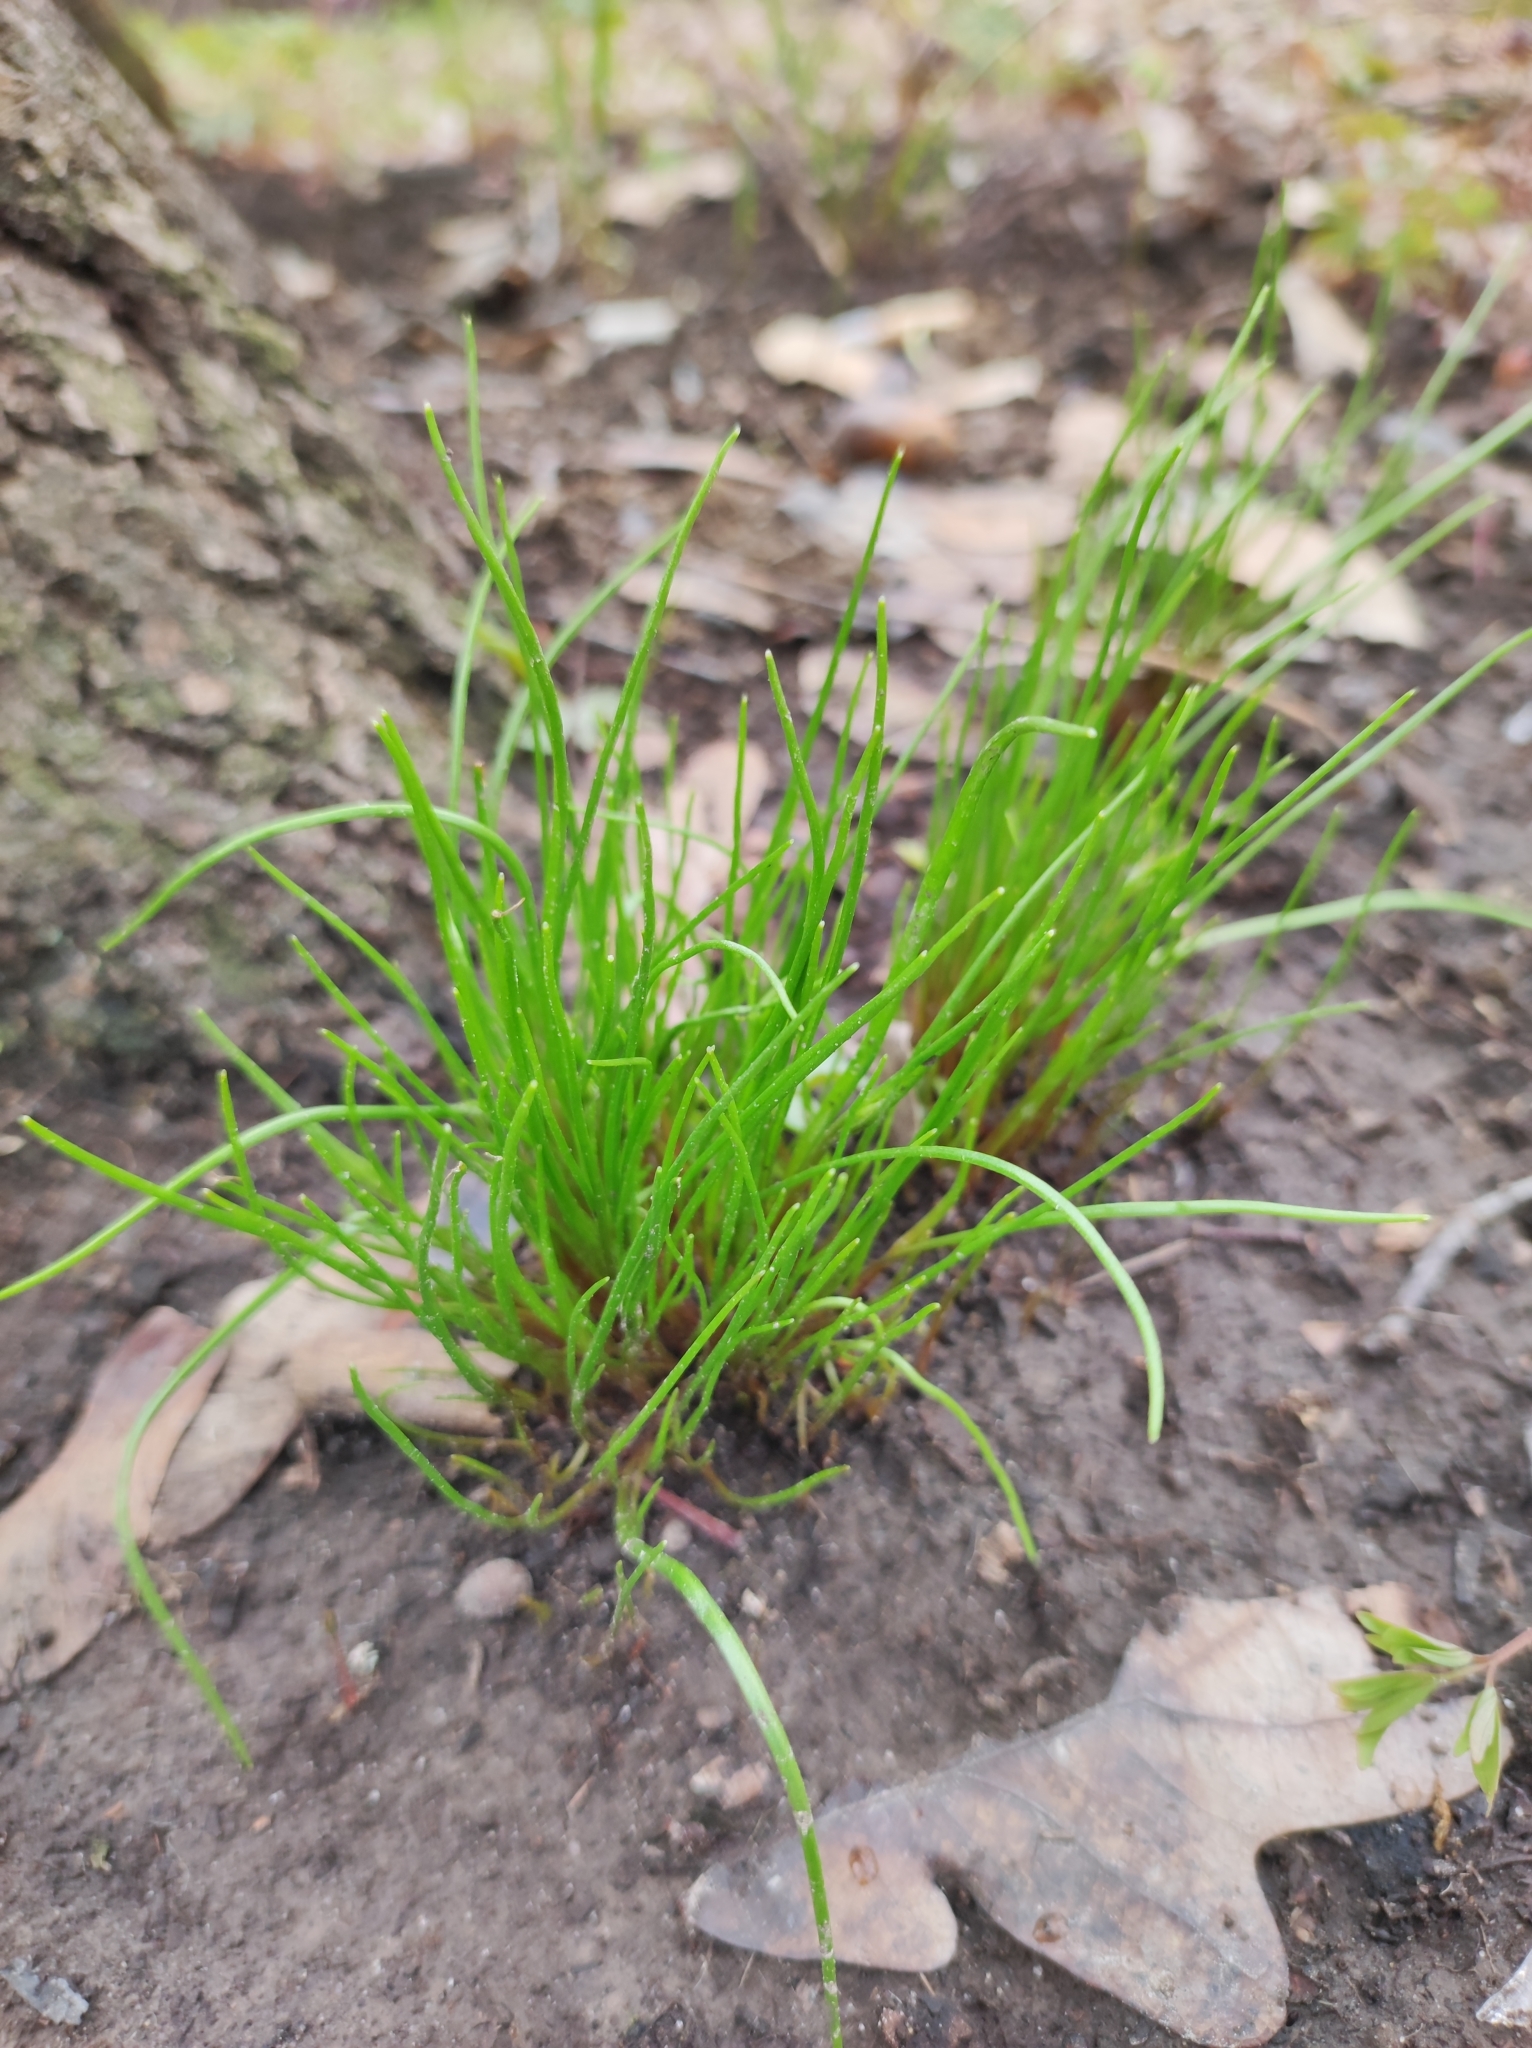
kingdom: Plantae
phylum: Tracheophyta
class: Liliopsida
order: Liliales
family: Liliaceae
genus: Gagea
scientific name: Gagea minima
